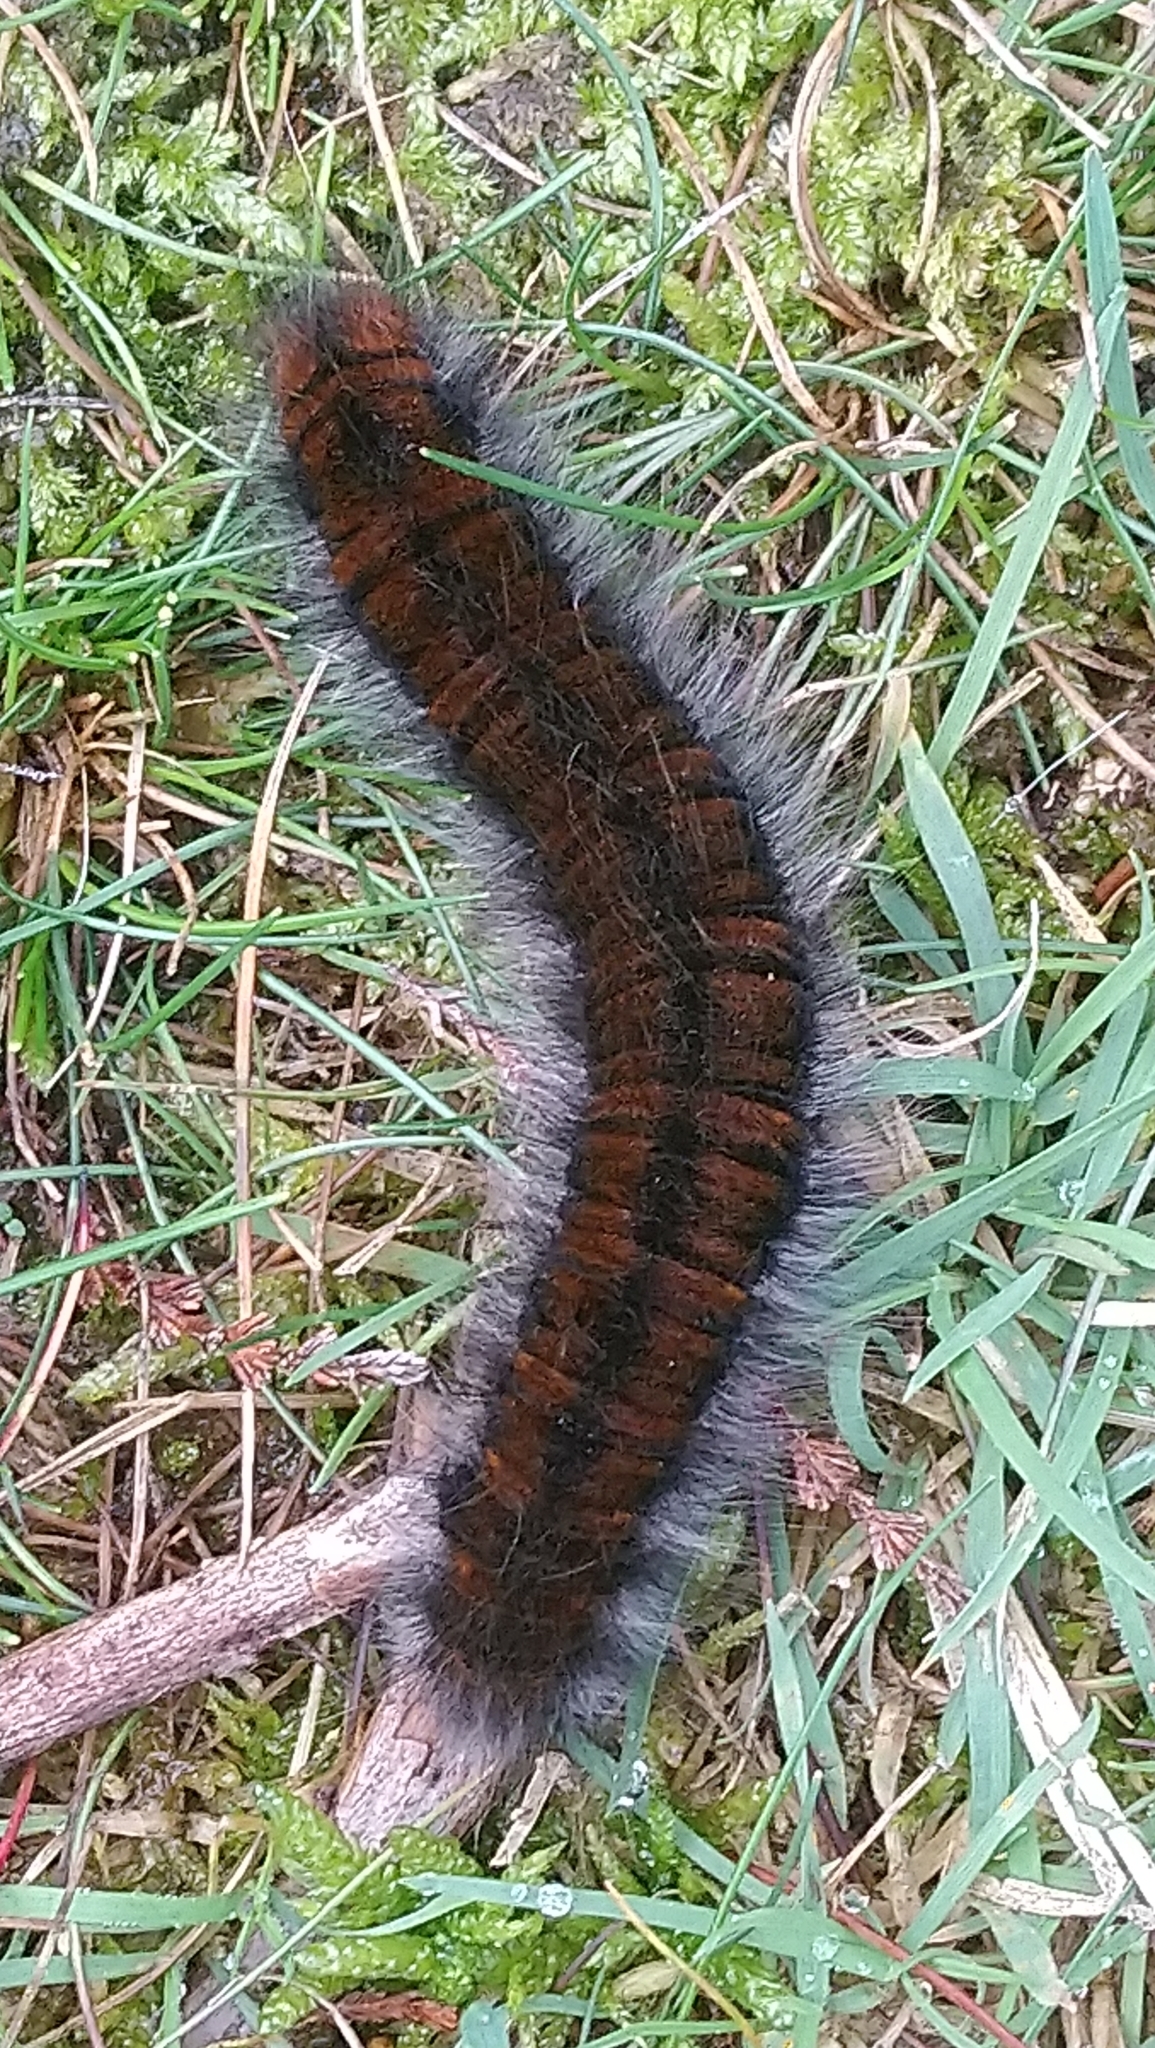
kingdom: Animalia
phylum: Arthropoda
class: Insecta
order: Lepidoptera
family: Lasiocampidae
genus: Macrothylacia
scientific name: Macrothylacia rubi
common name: Fox moth
